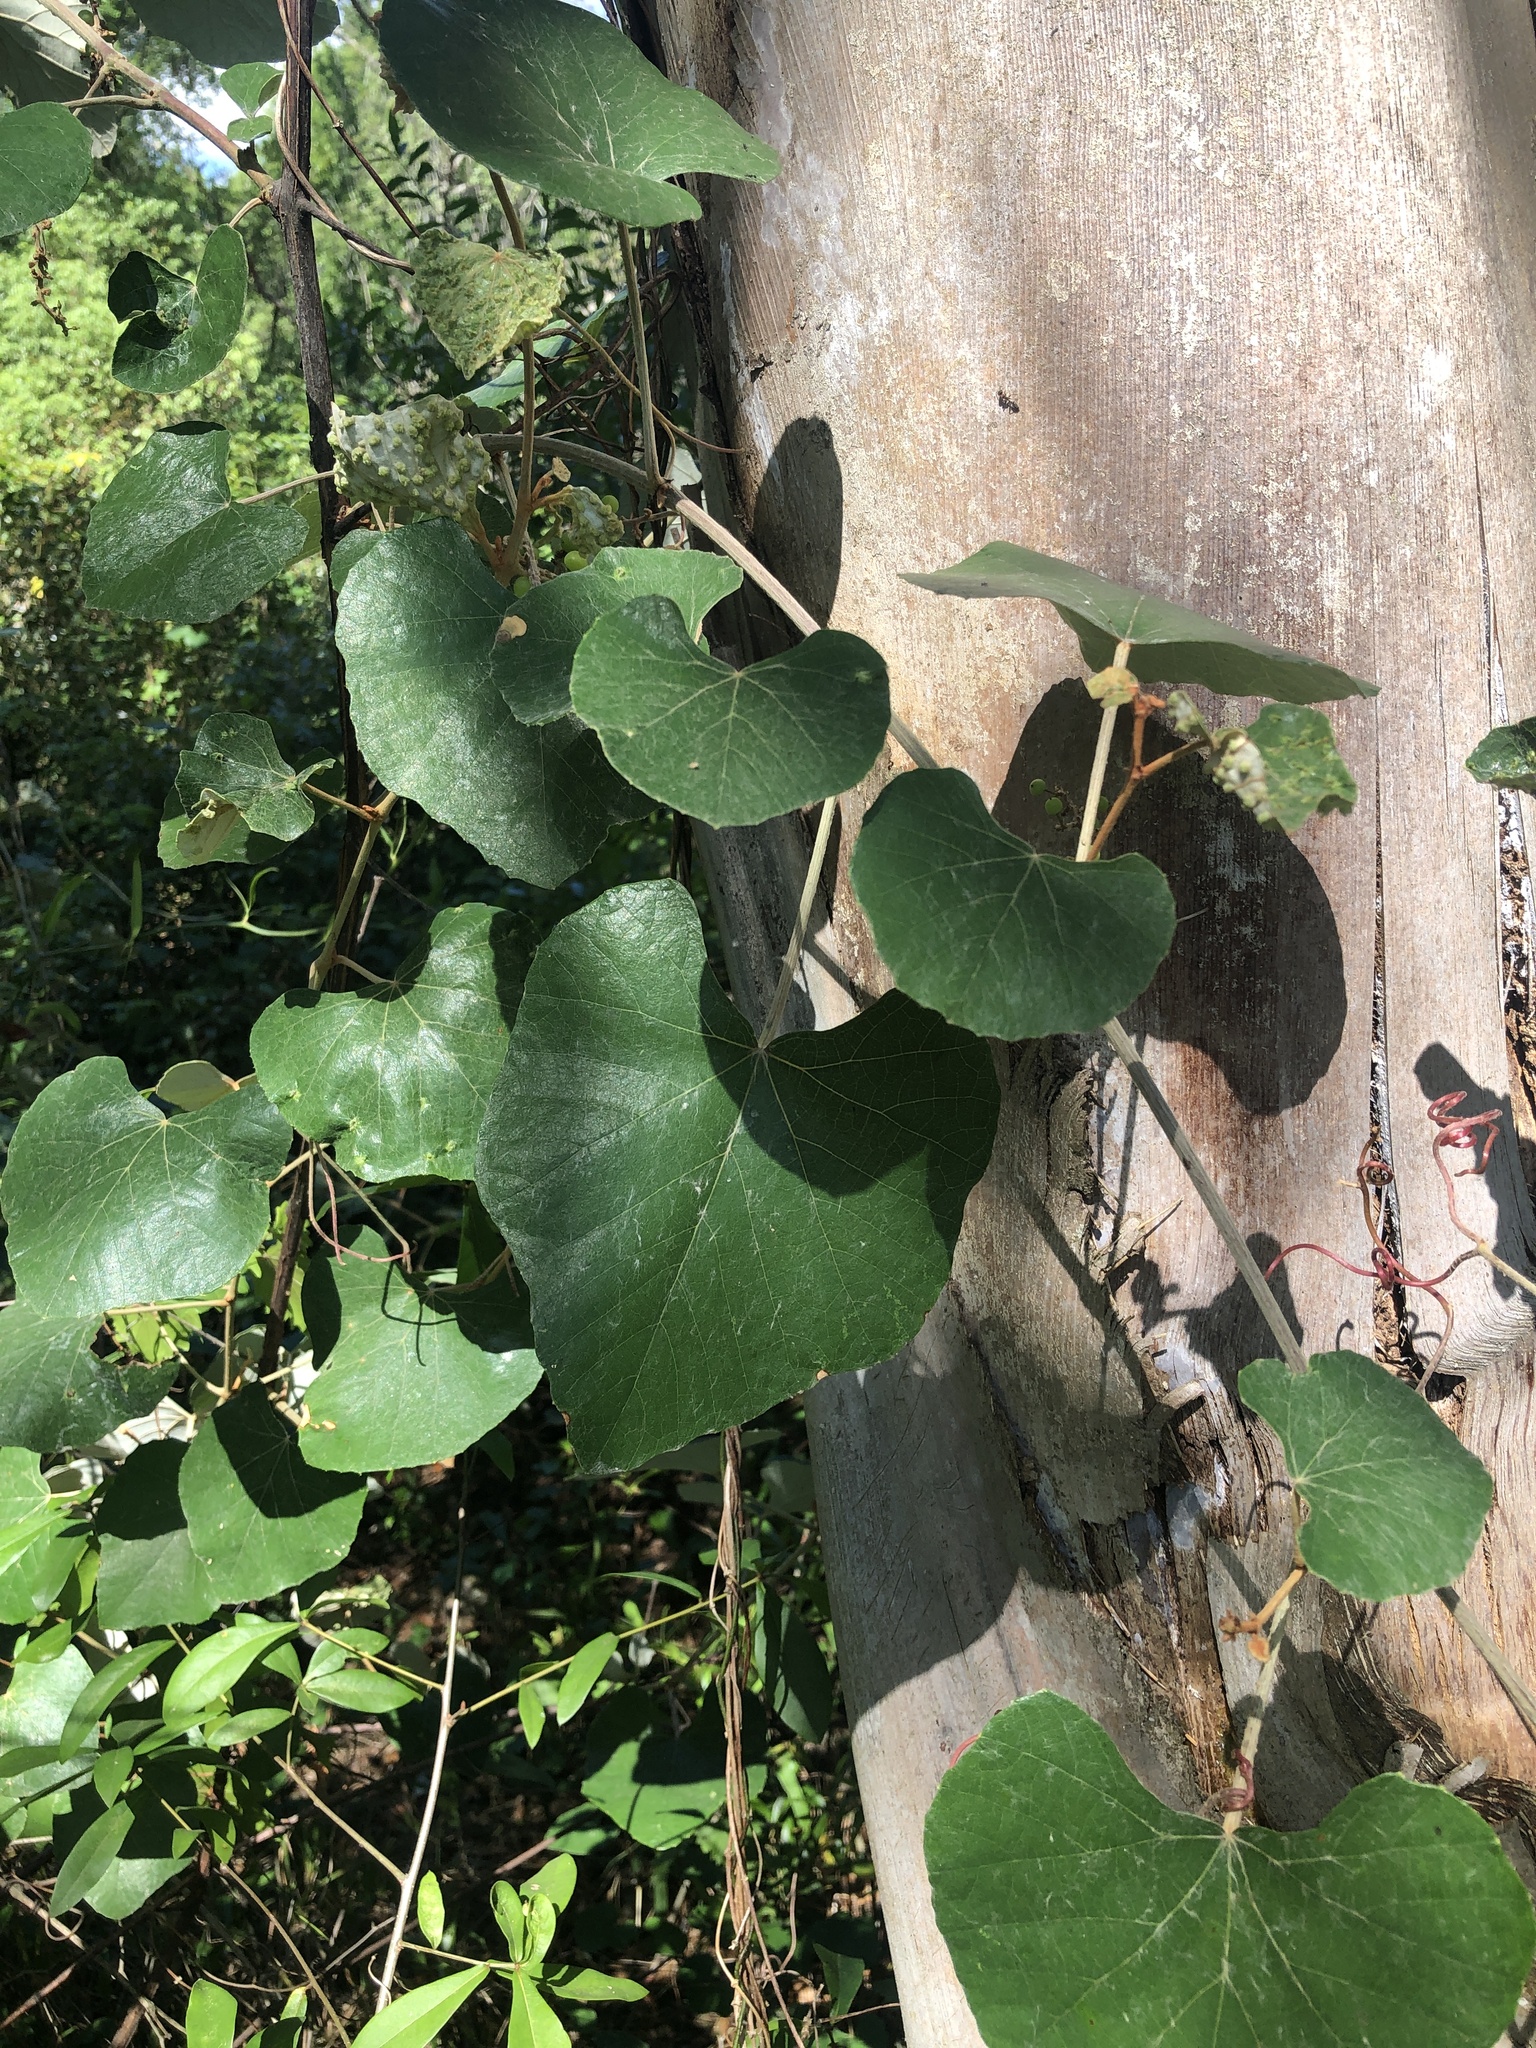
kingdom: Plantae
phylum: Tracheophyta
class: Magnoliopsida
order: Vitales
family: Vitaceae
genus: Vitis
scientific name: Vitis shuttleworthii
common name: Caloosa grape
